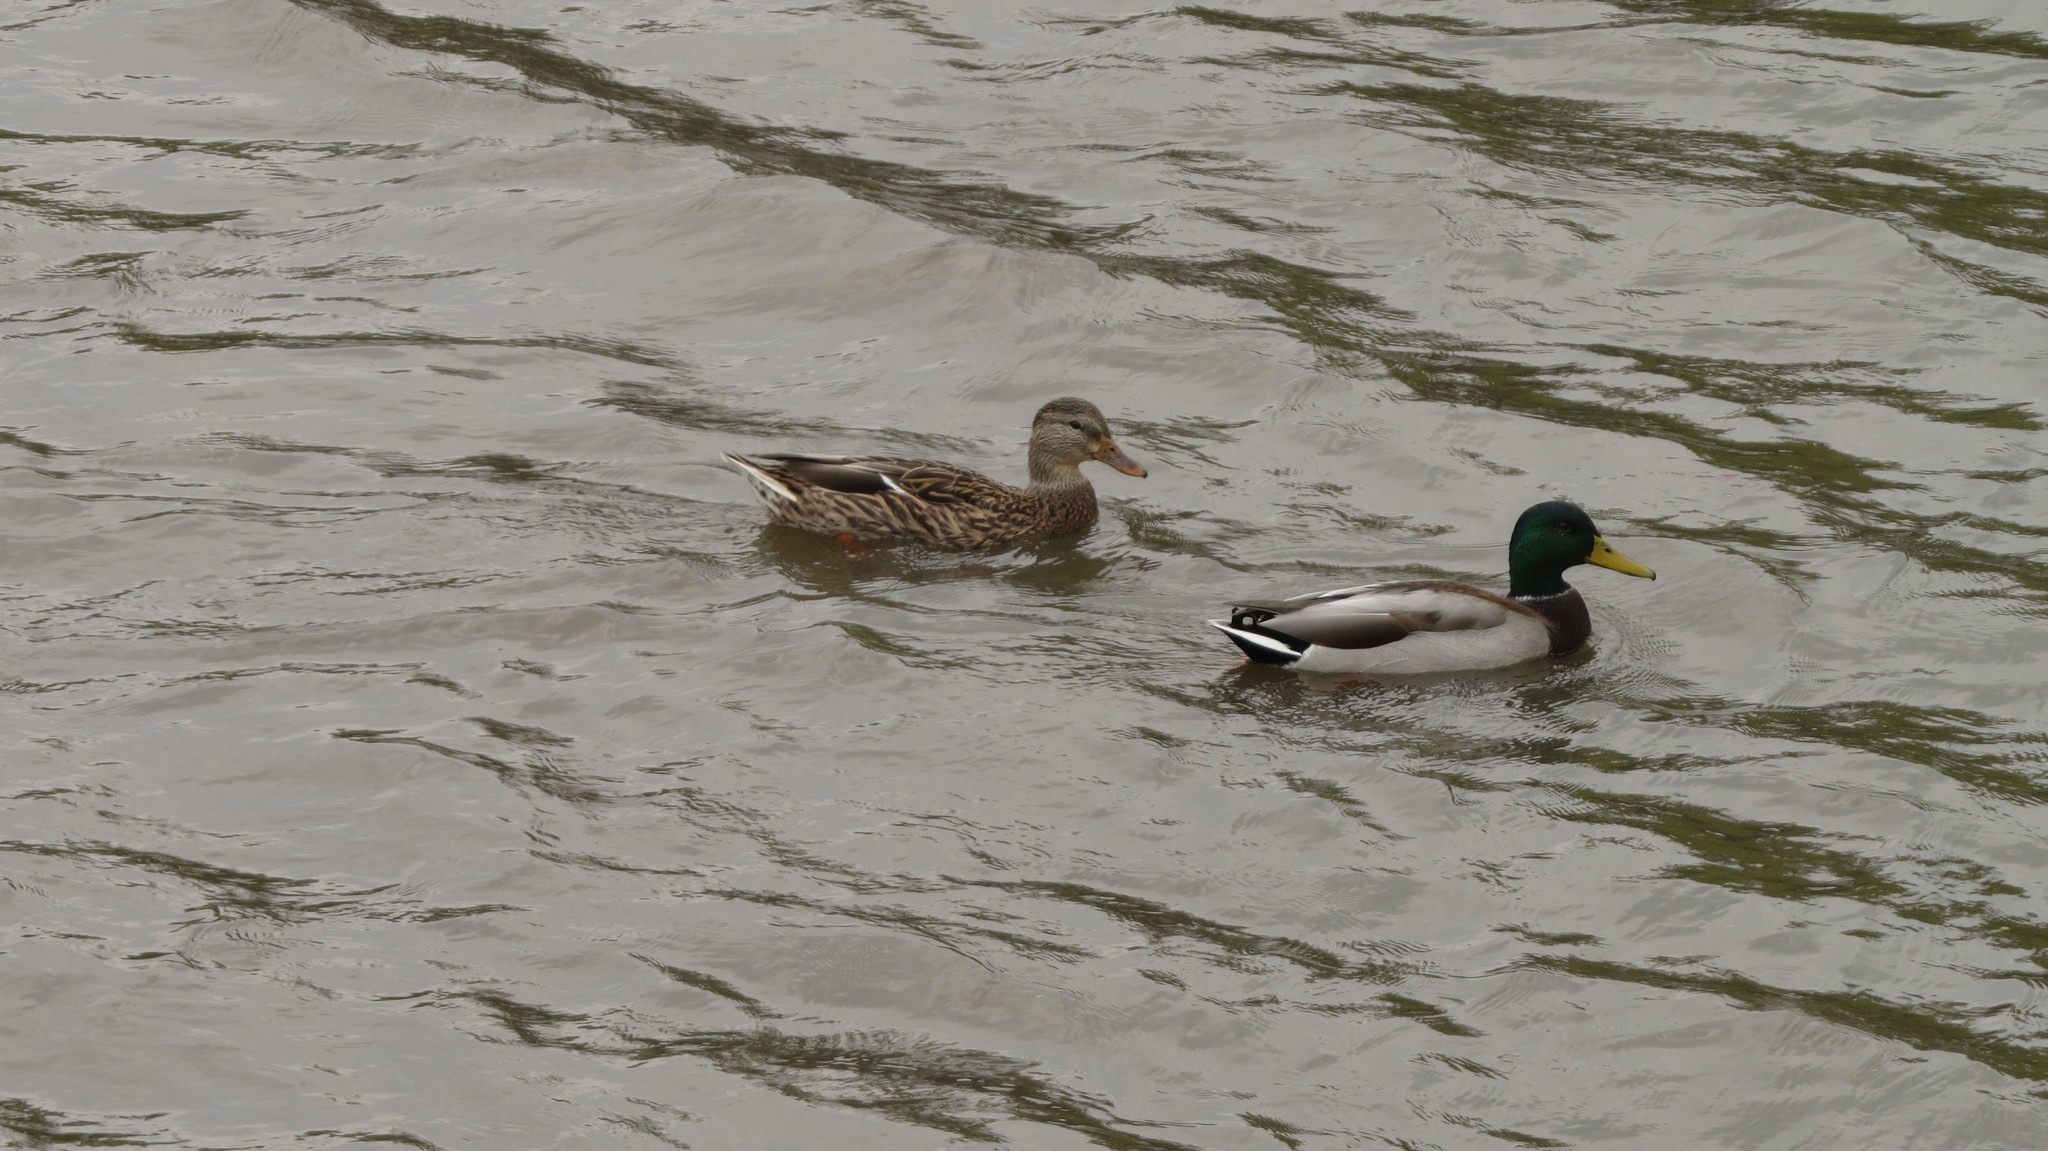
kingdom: Animalia
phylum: Chordata
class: Aves
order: Anseriformes
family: Anatidae
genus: Anas
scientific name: Anas platyrhynchos
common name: Mallard
